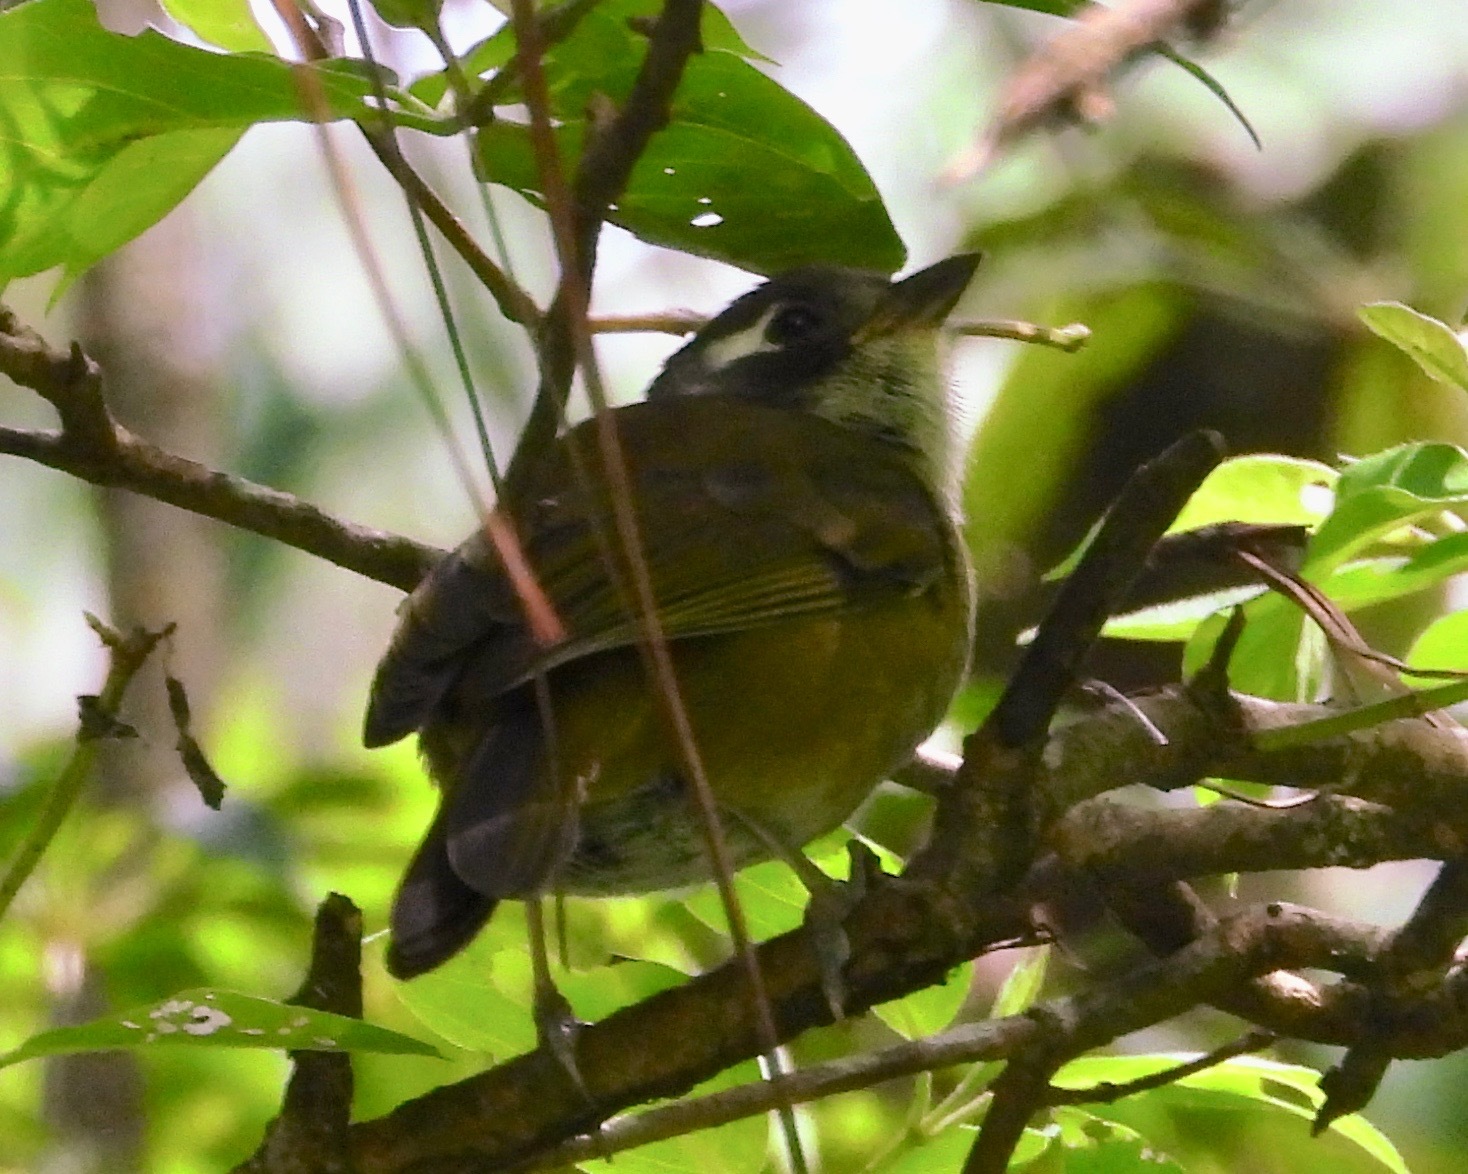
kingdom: Animalia
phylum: Chordata
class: Aves
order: Passeriformes
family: Passerellidae
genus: Chlorospingus
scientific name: Chlorospingus flavopectus
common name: Common chlorospingus
